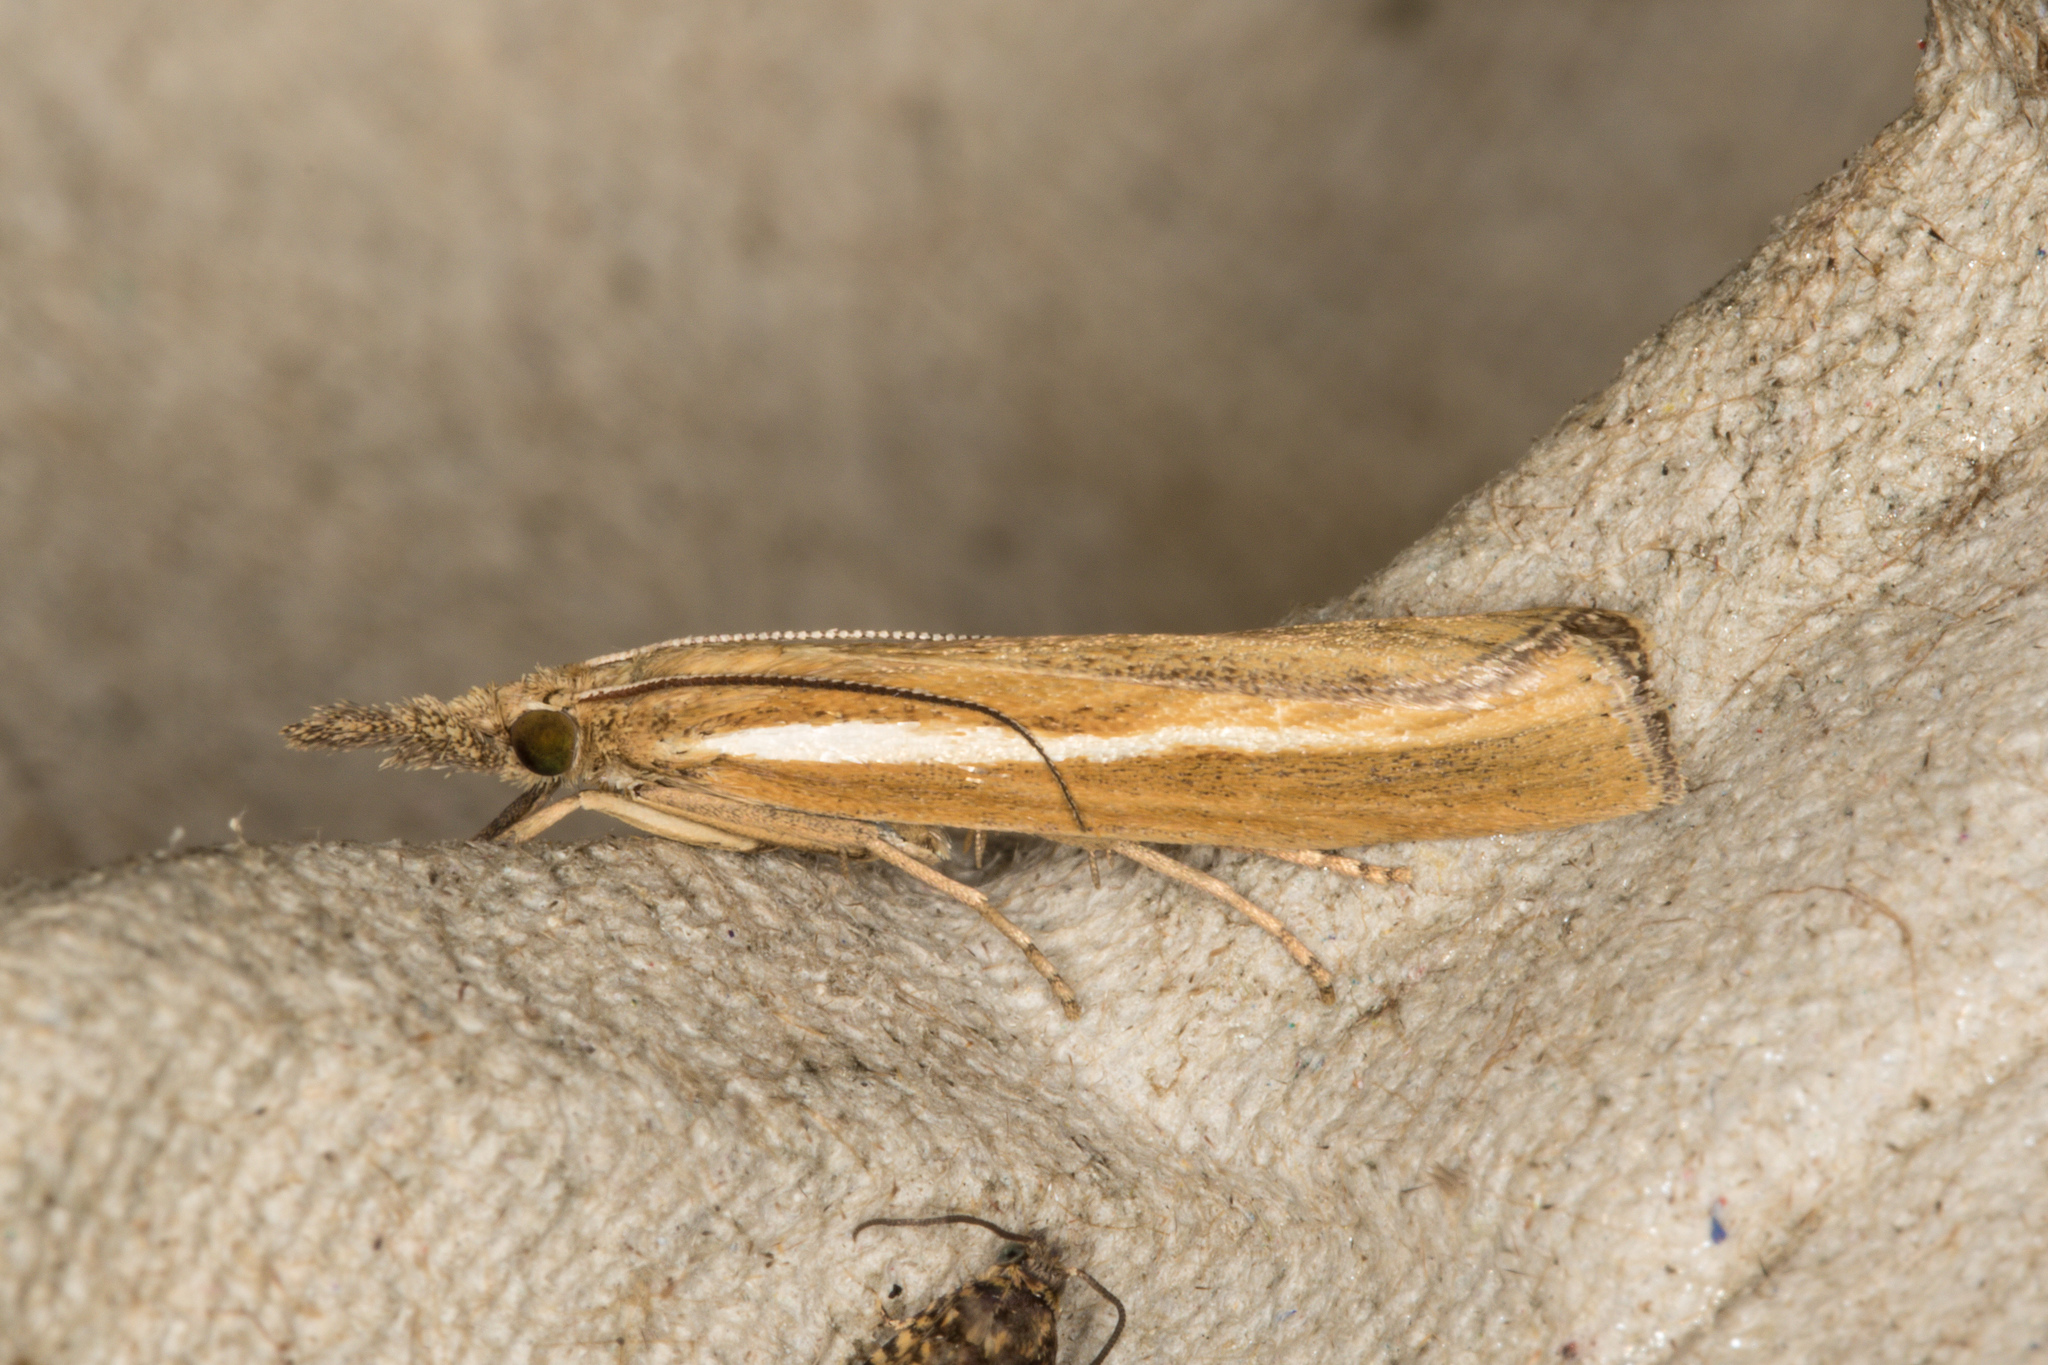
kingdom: Animalia
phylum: Arthropoda
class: Insecta
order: Lepidoptera
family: Crambidae
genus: Agriphila
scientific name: Agriphila tristellus
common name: Common grass-veneer
